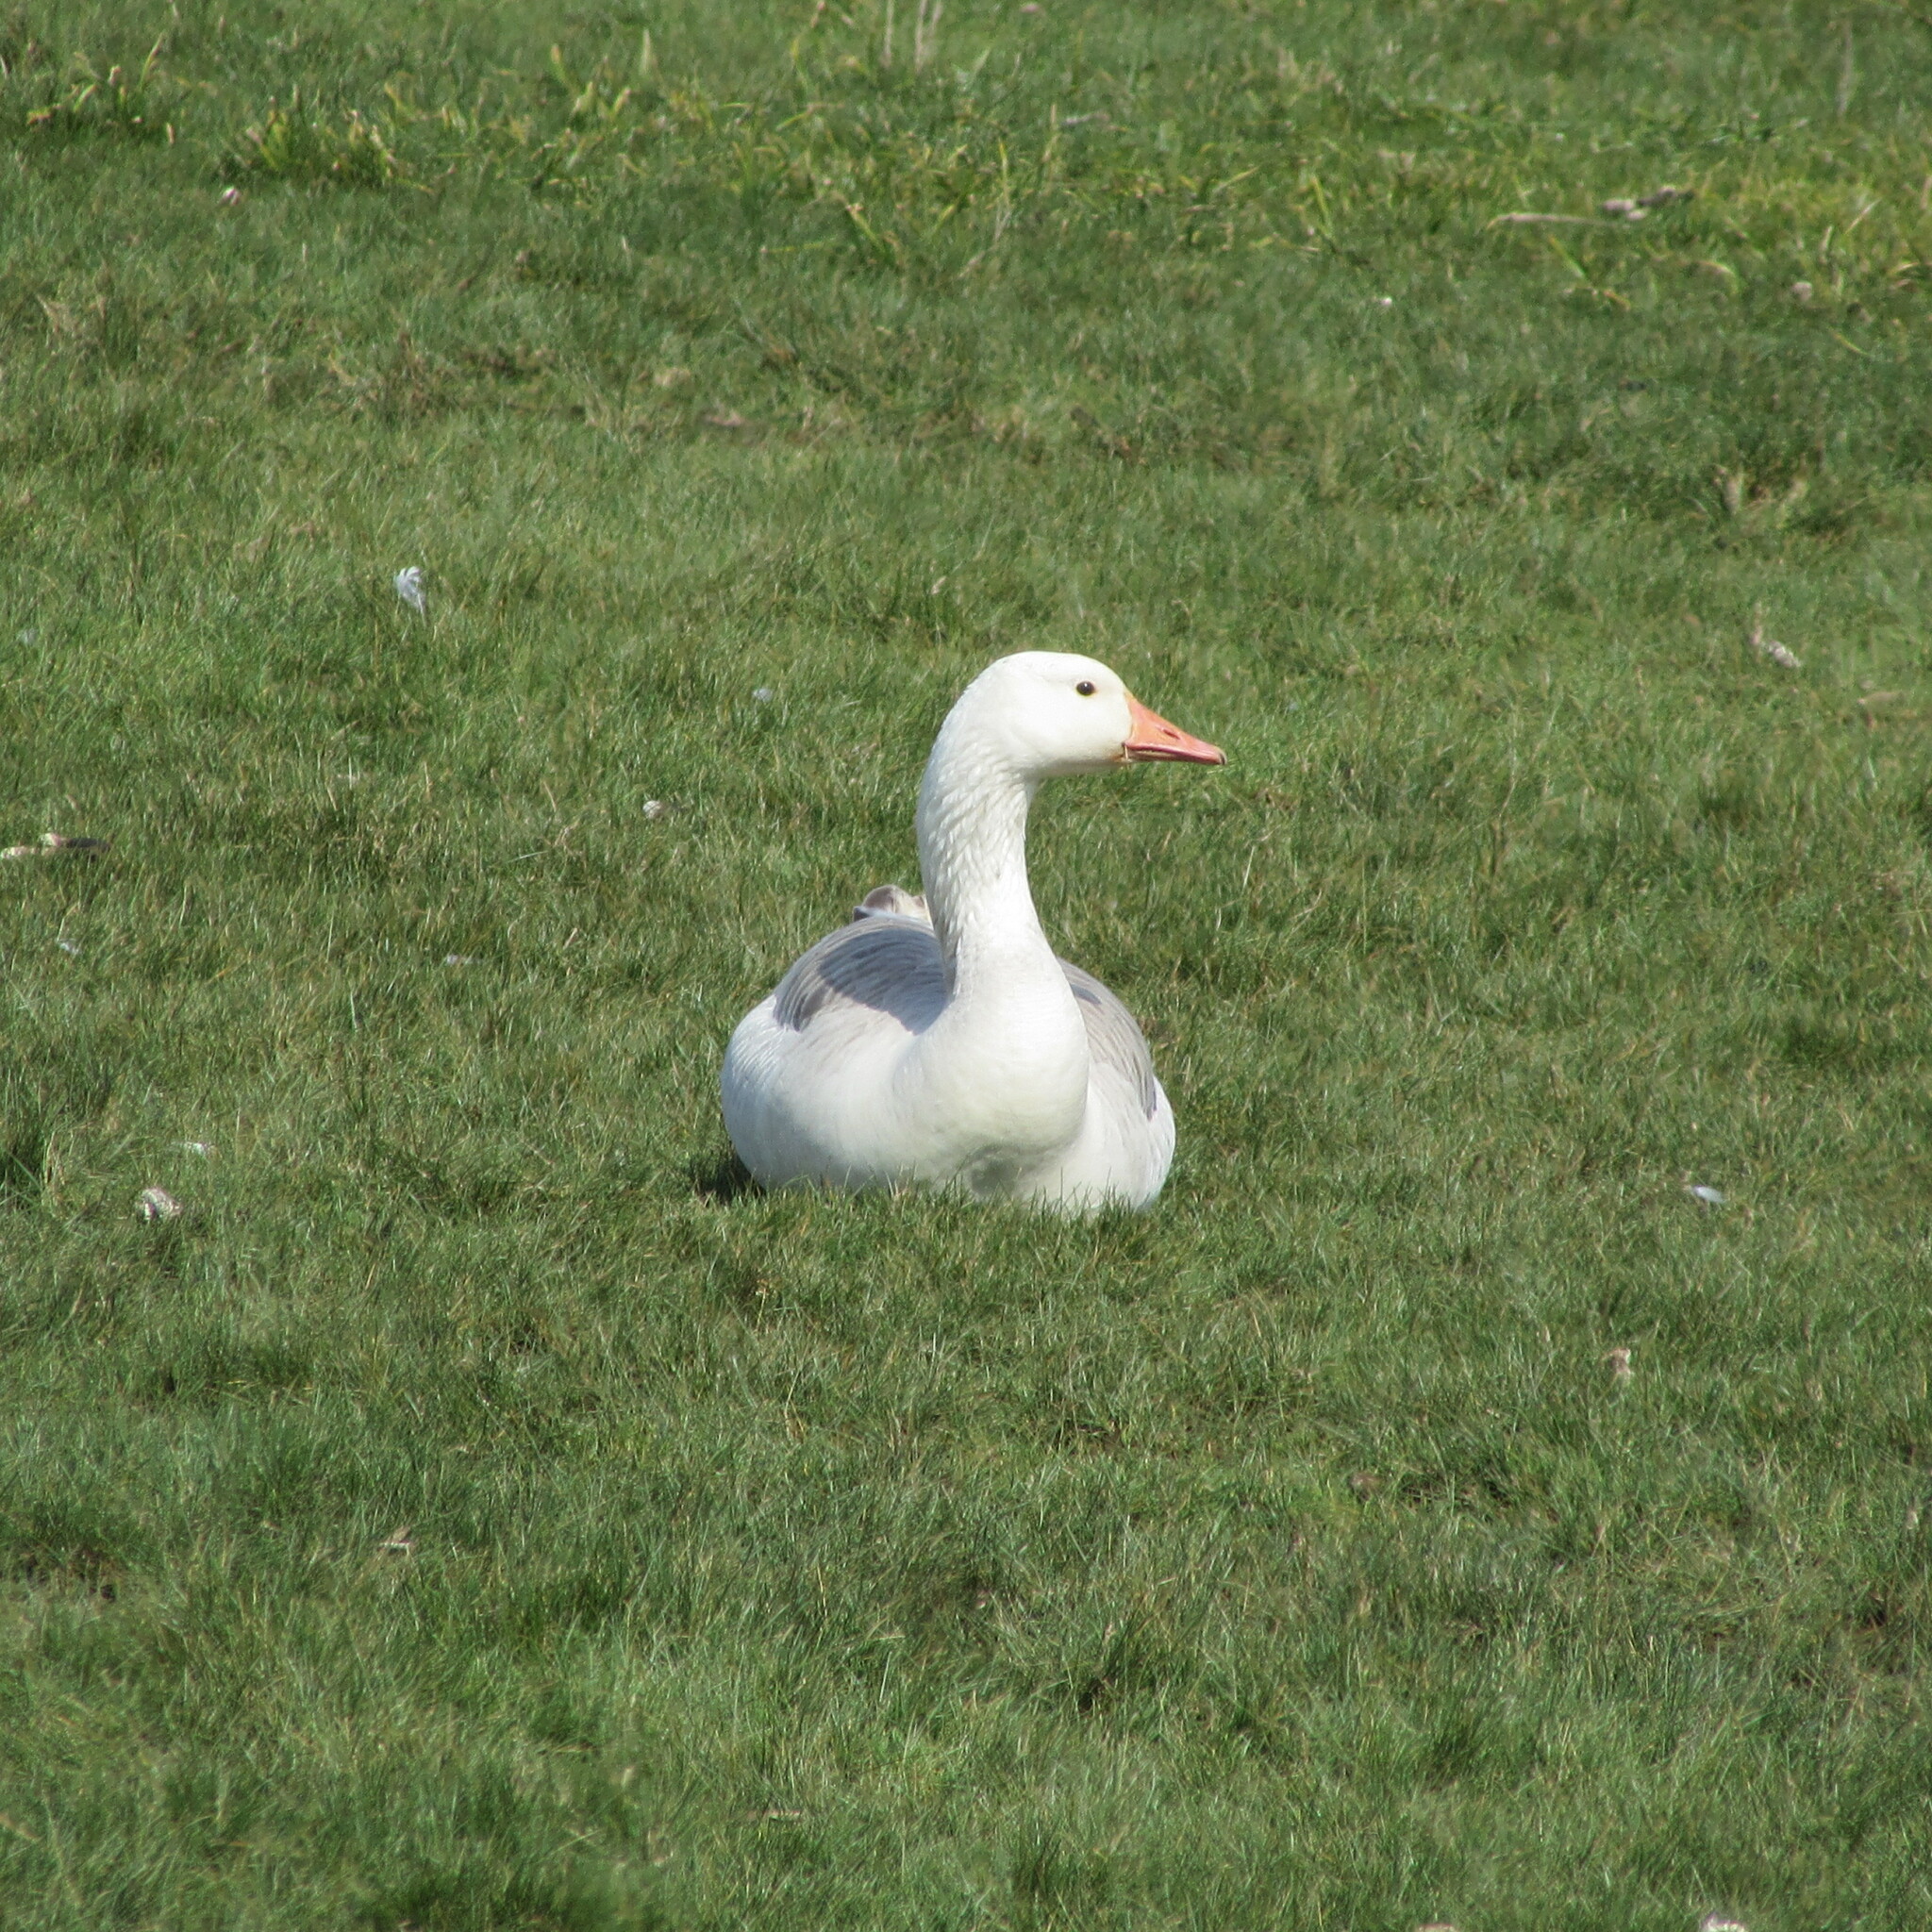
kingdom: Animalia
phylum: Chordata
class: Aves
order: Anseriformes
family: Anatidae
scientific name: Anatidae
